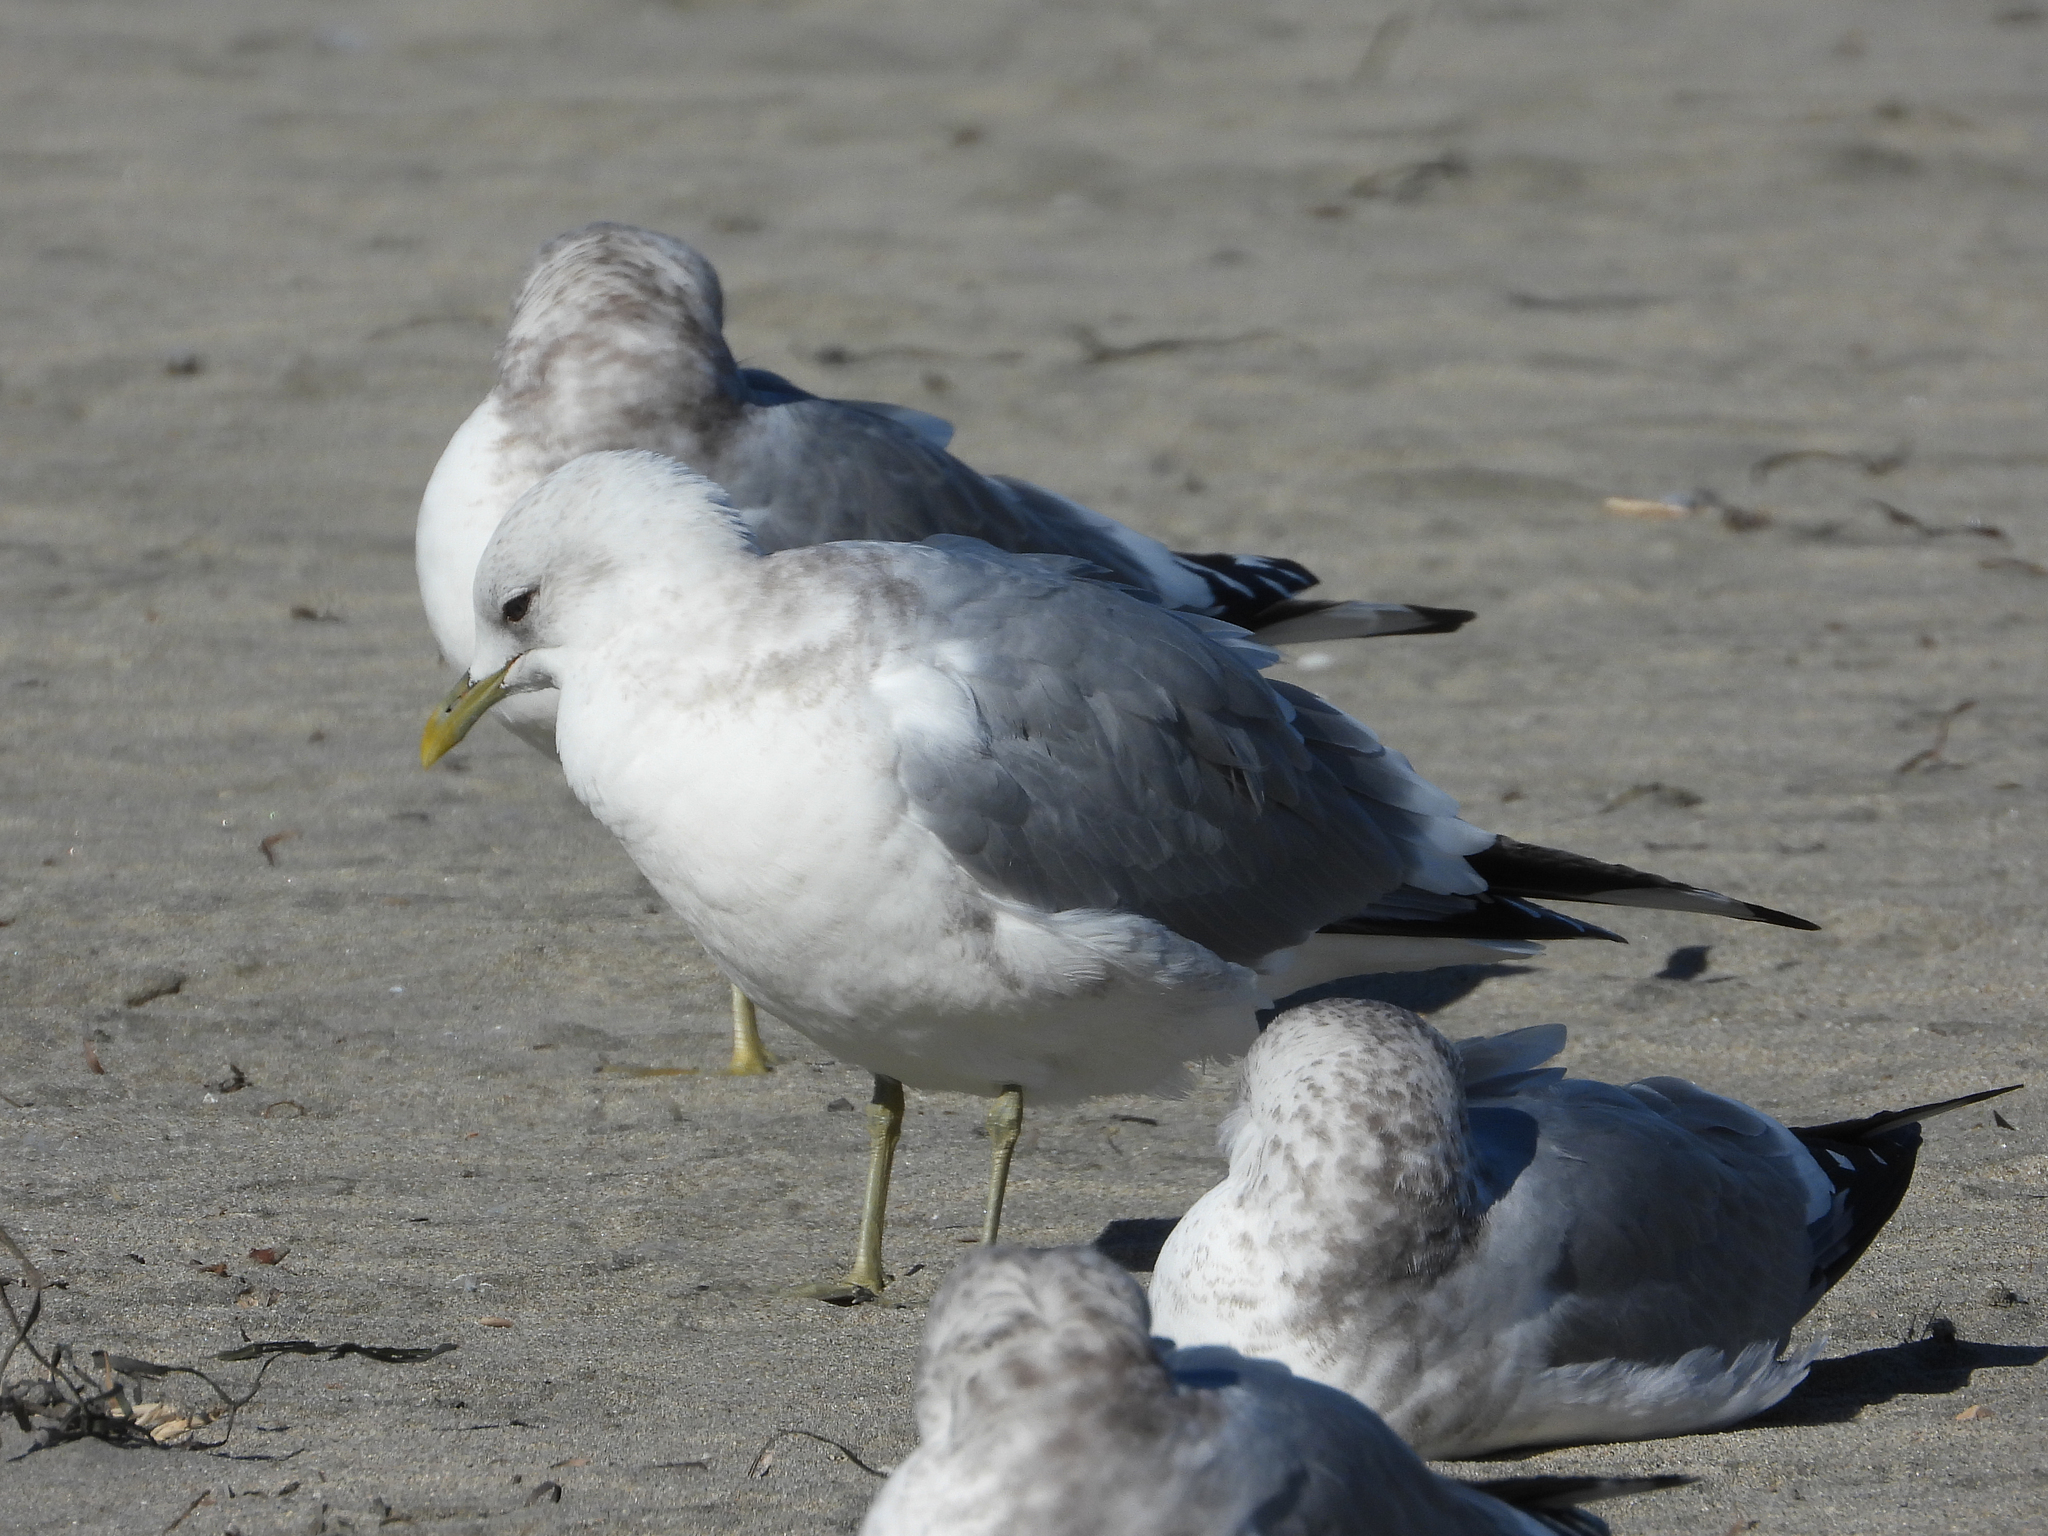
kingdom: Animalia
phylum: Chordata
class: Aves
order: Charadriiformes
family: Laridae
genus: Larus
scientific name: Larus brachyrhynchus
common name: Short-billed gull
